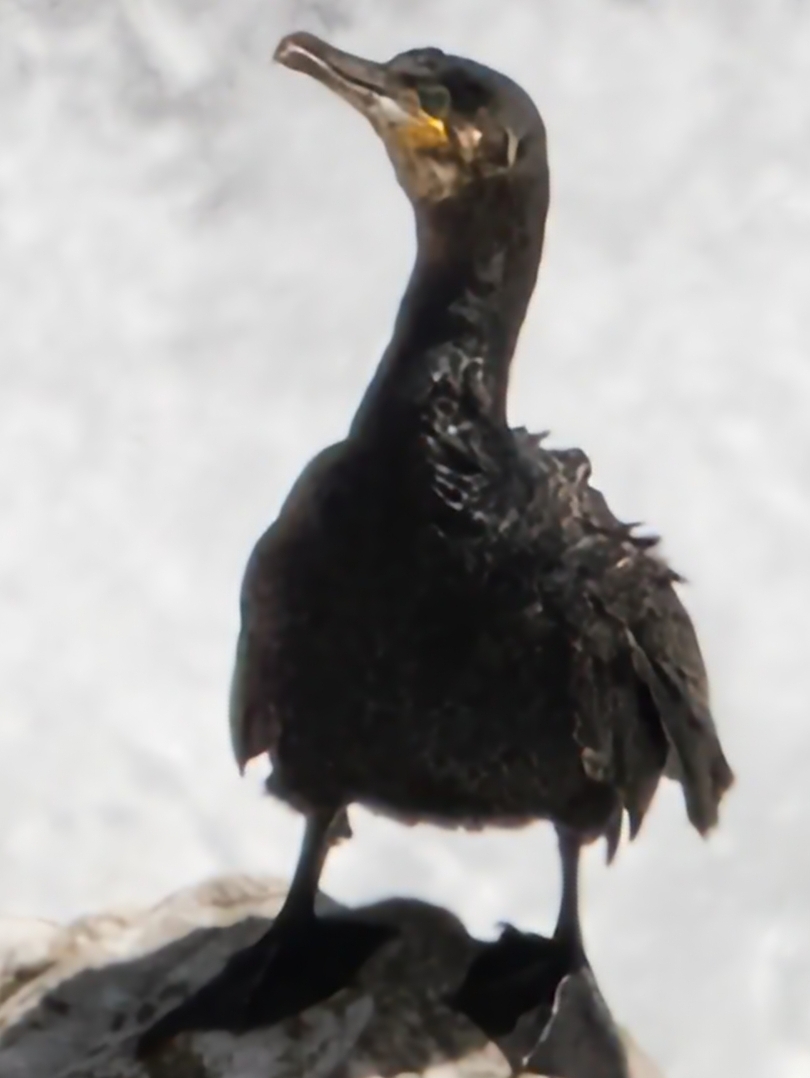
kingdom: Animalia
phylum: Chordata
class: Aves
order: Suliformes
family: Phalacrocoracidae
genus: Phalacrocorax
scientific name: Phalacrocorax carbo
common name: Great cormorant
